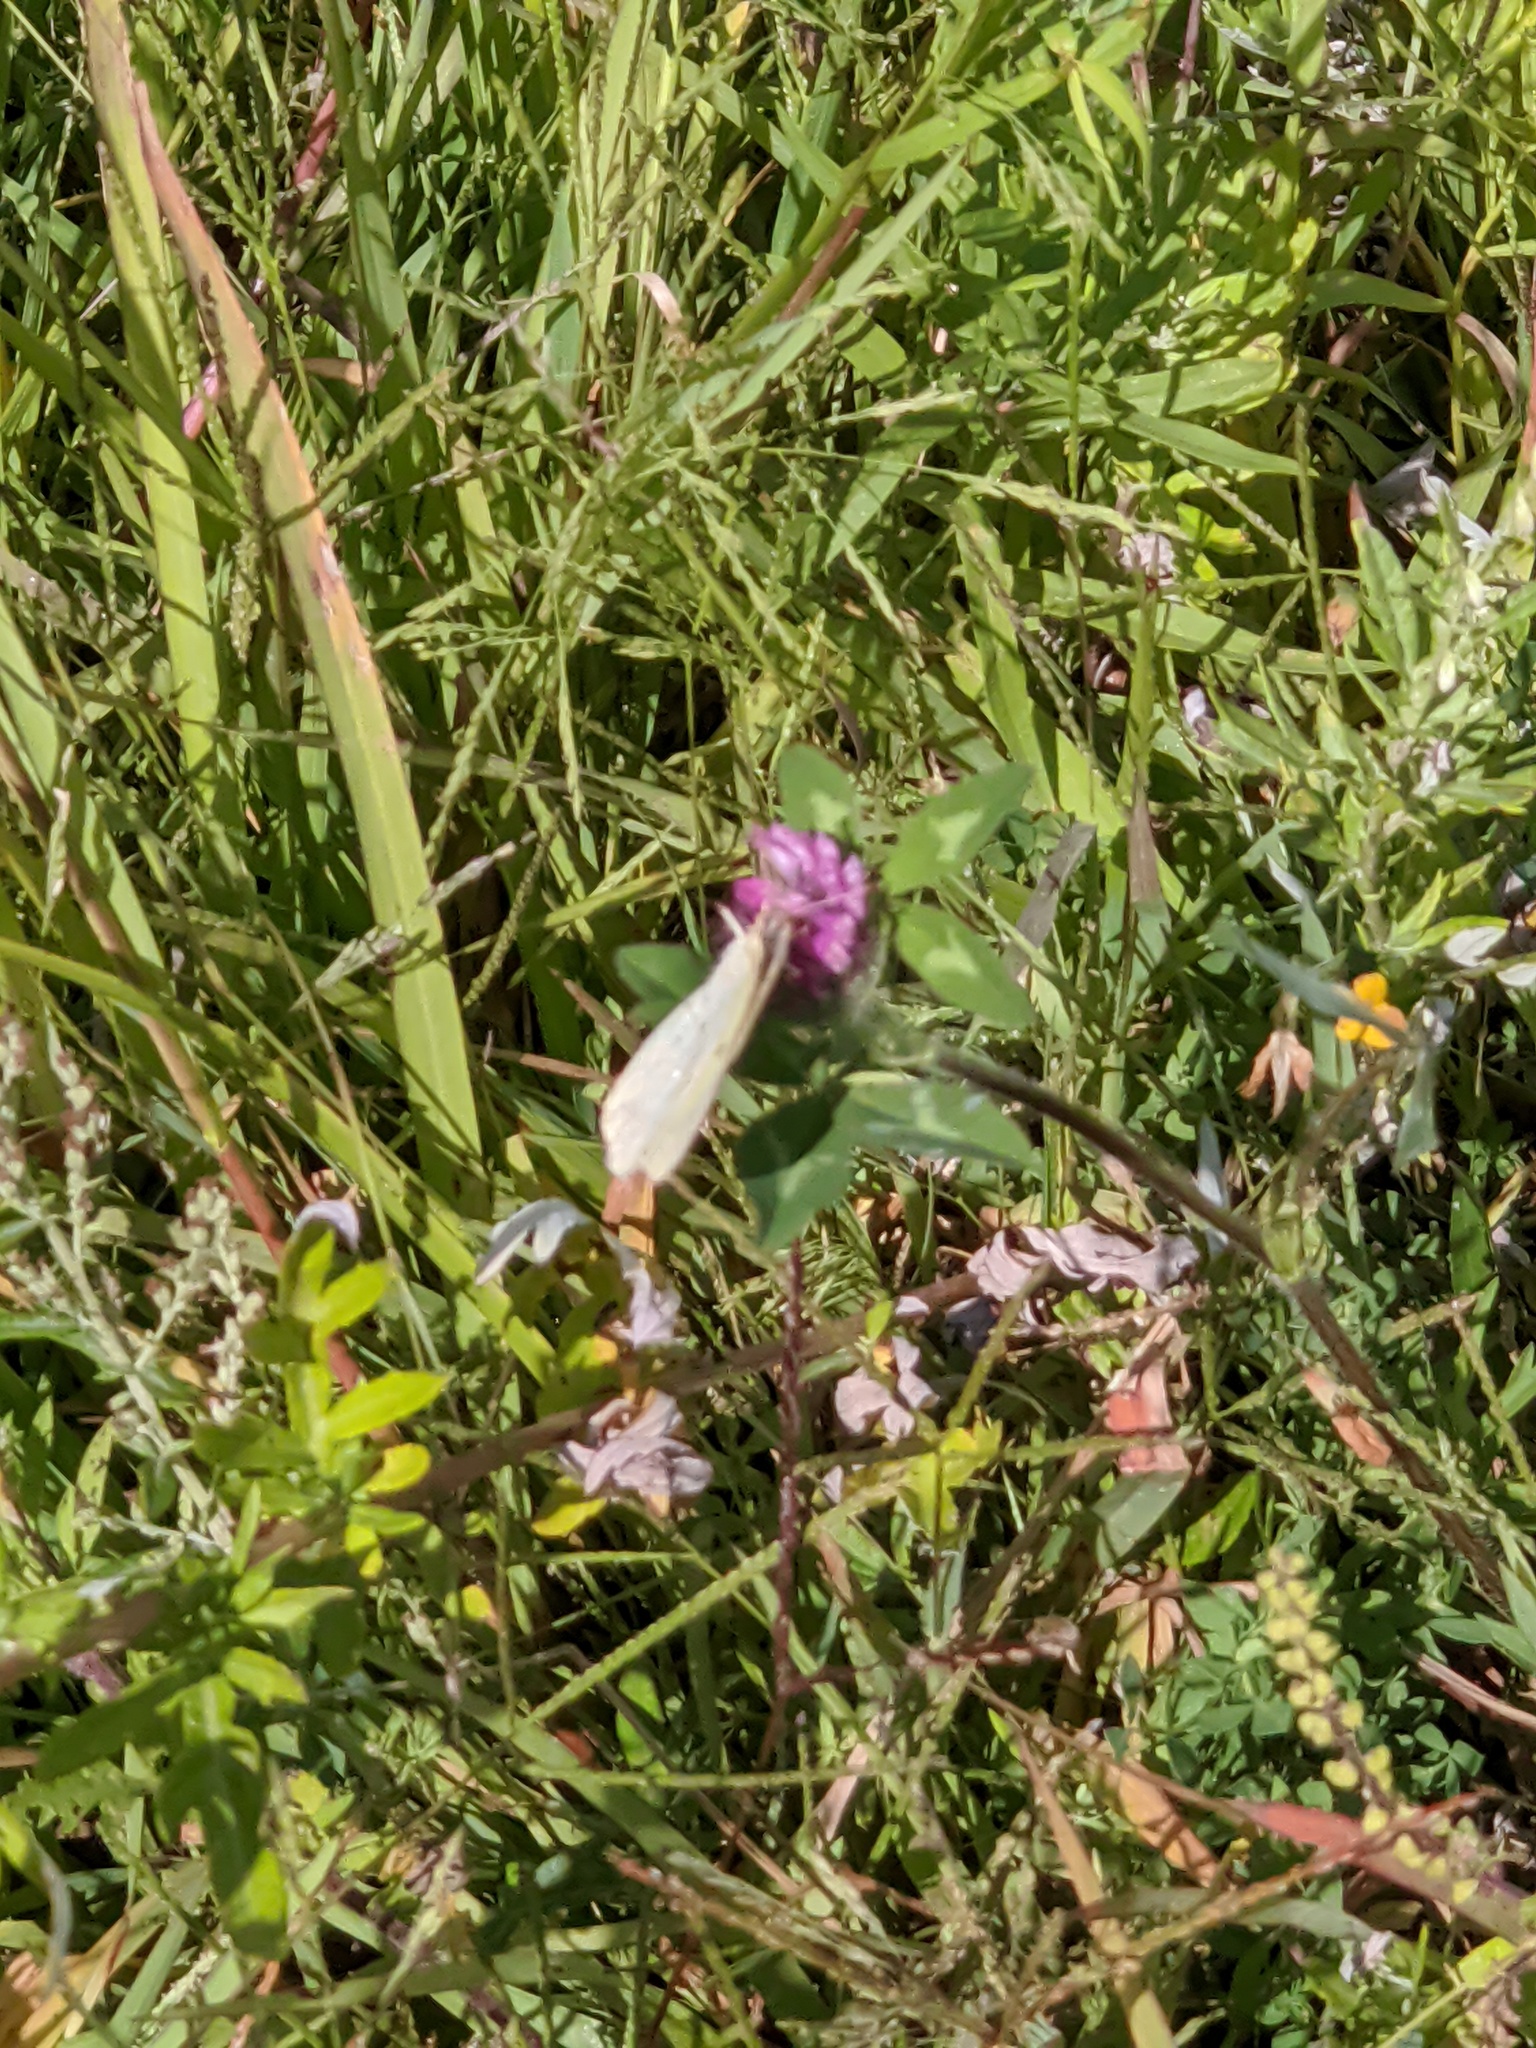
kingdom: Plantae
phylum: Tracheophyta
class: Magnoliopsida
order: Fabales
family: Fabaceae
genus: Trifolium
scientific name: Trifolium pratense
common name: Red clover
